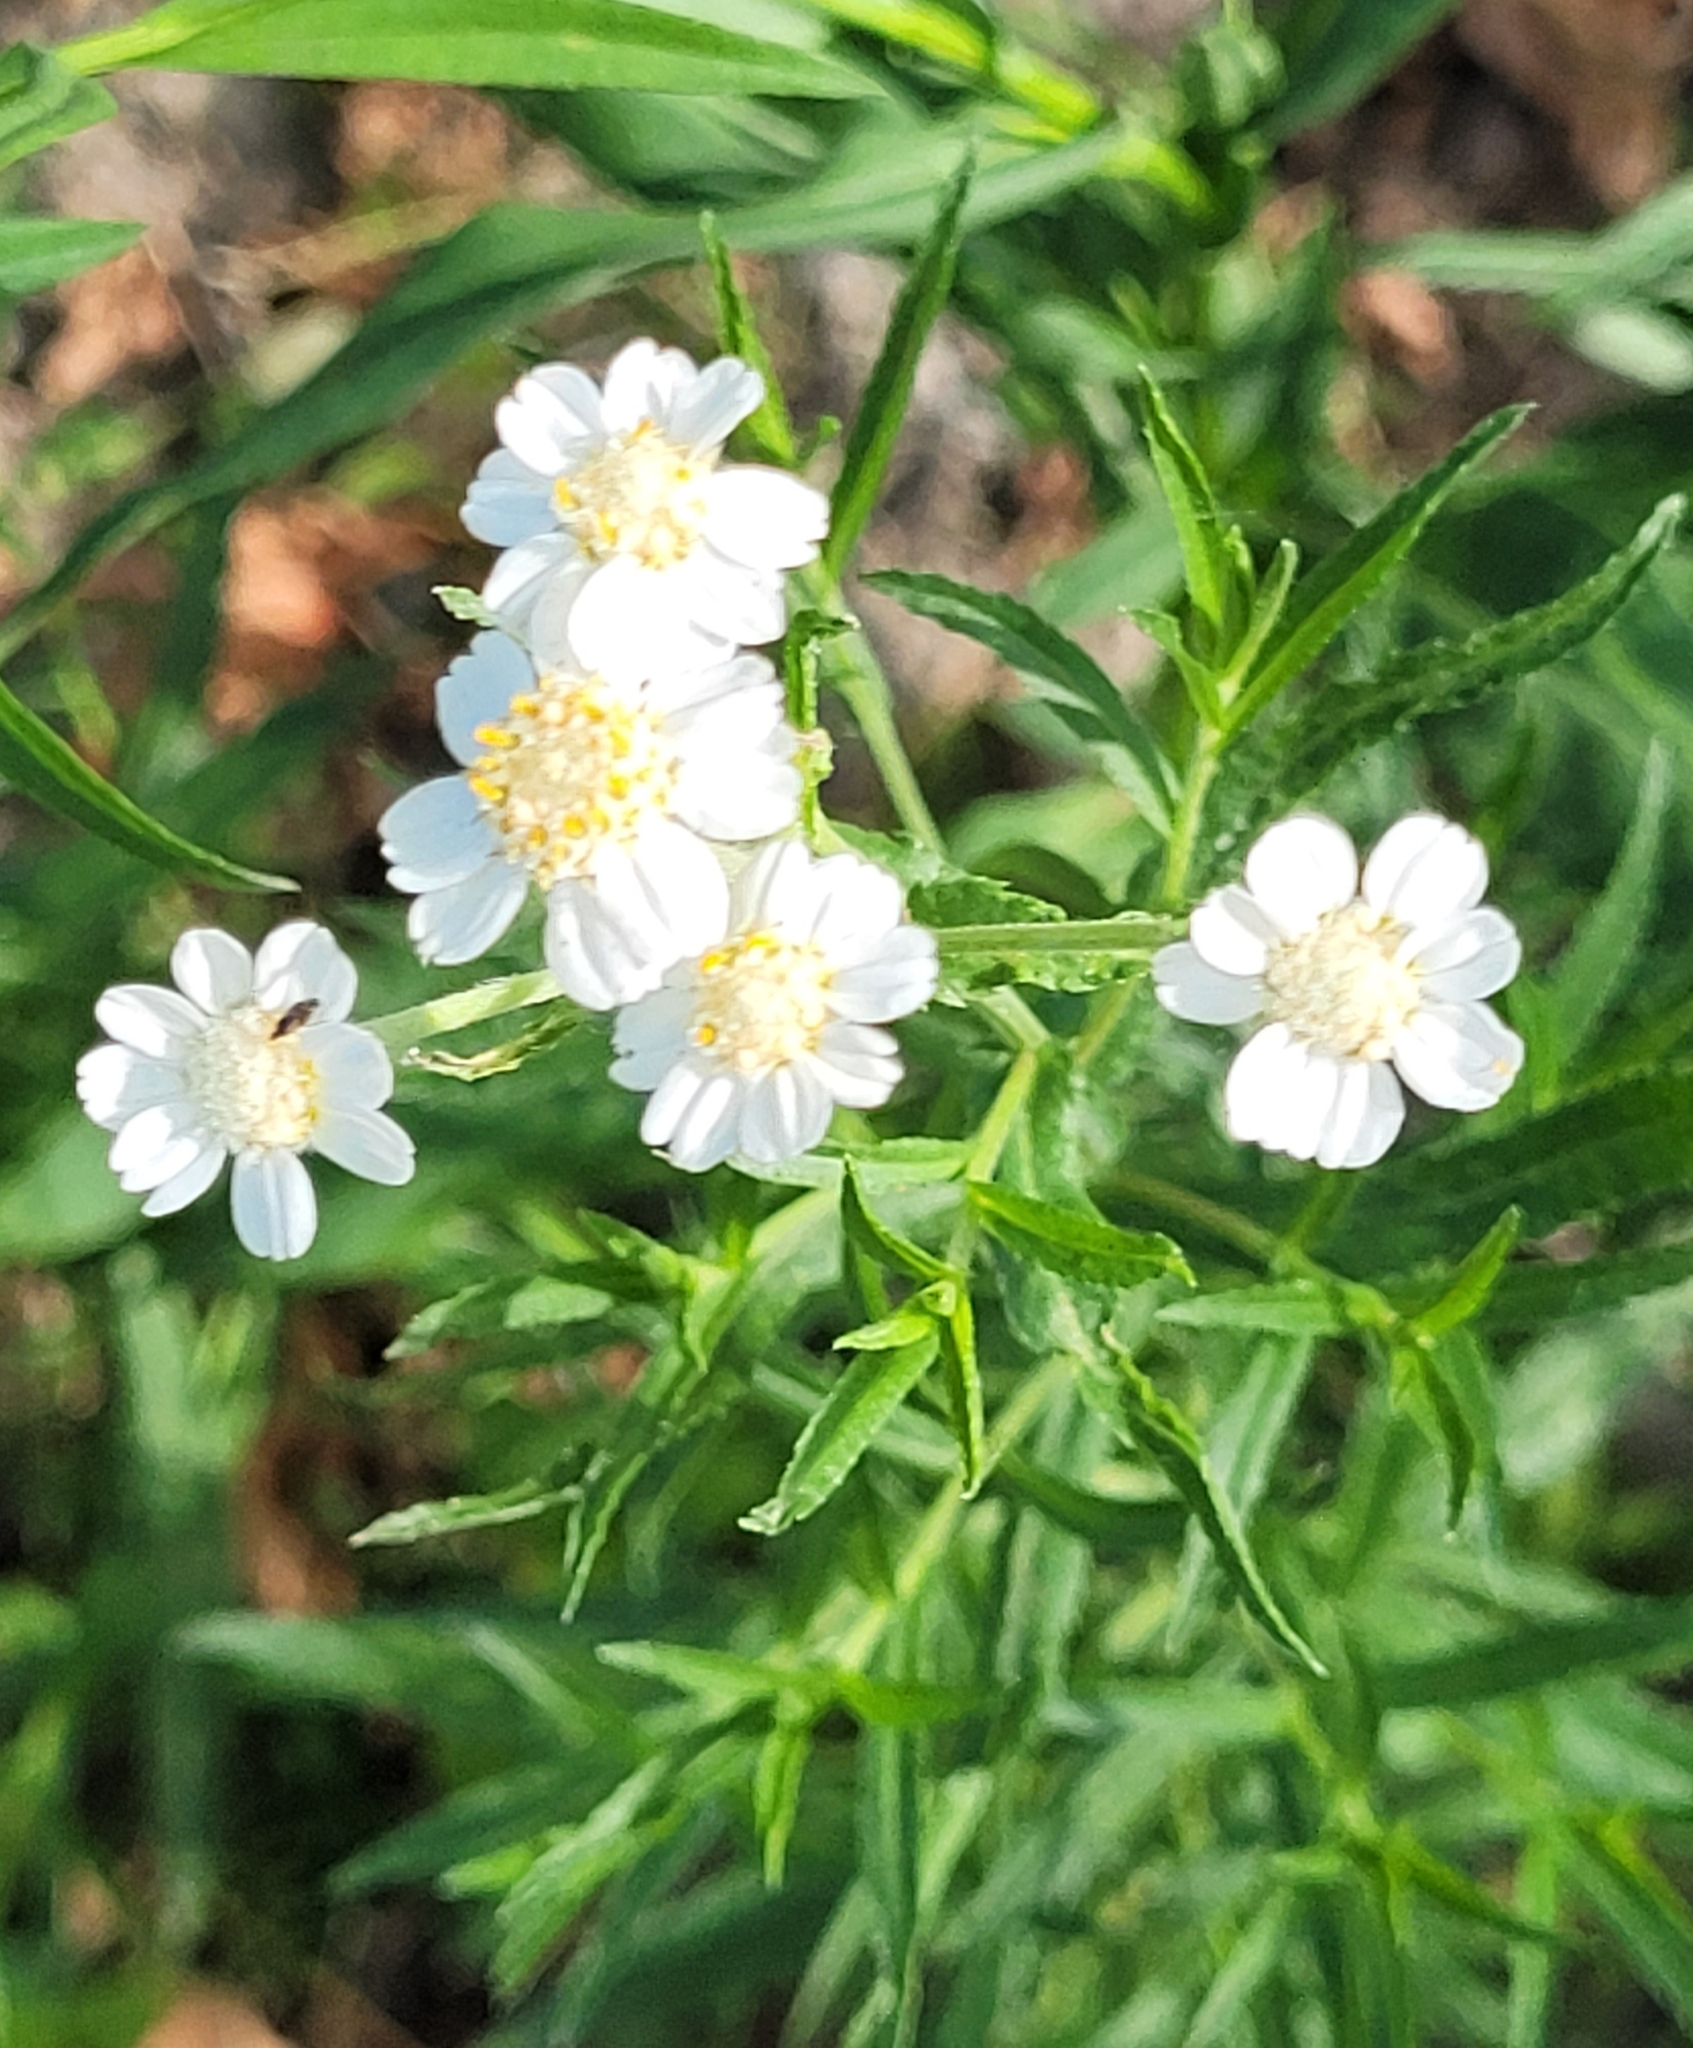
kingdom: Plantae
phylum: Tracheophyta
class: Magnoliopsida
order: Asterales
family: Asteraceae
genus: Achillea
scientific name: Achillea ptarmica
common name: Sneezeweed
